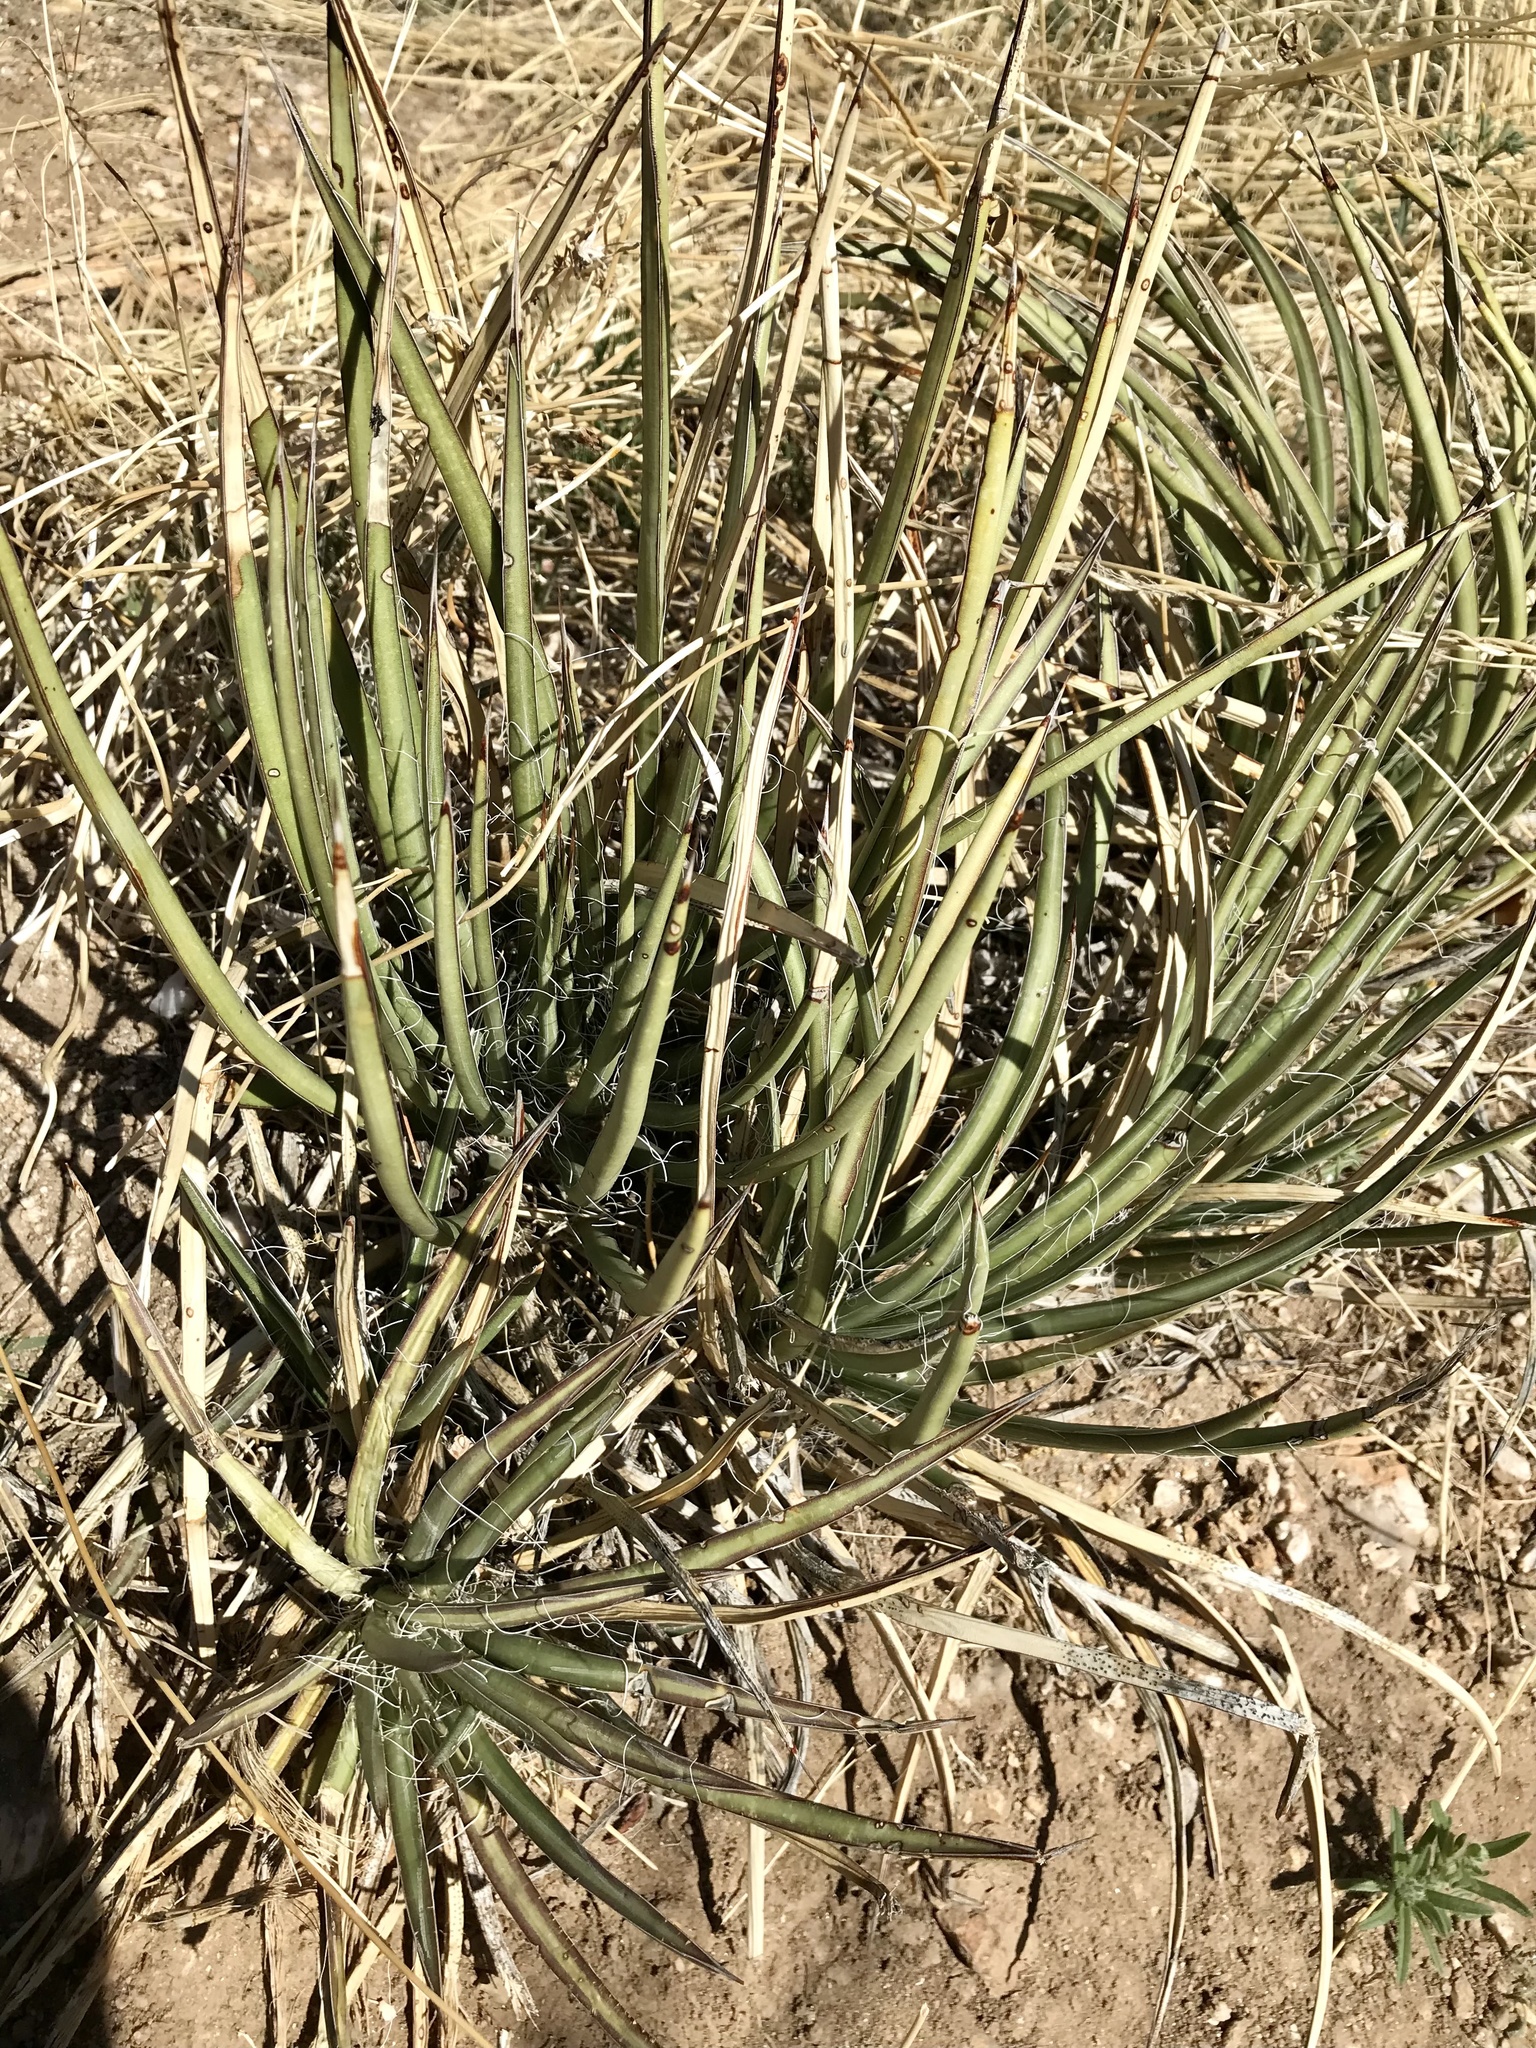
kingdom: Plantae
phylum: Tracheophyta
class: Liliopsida
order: Asparagales
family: Asparagaceae
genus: Agave
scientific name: Agave schottii
